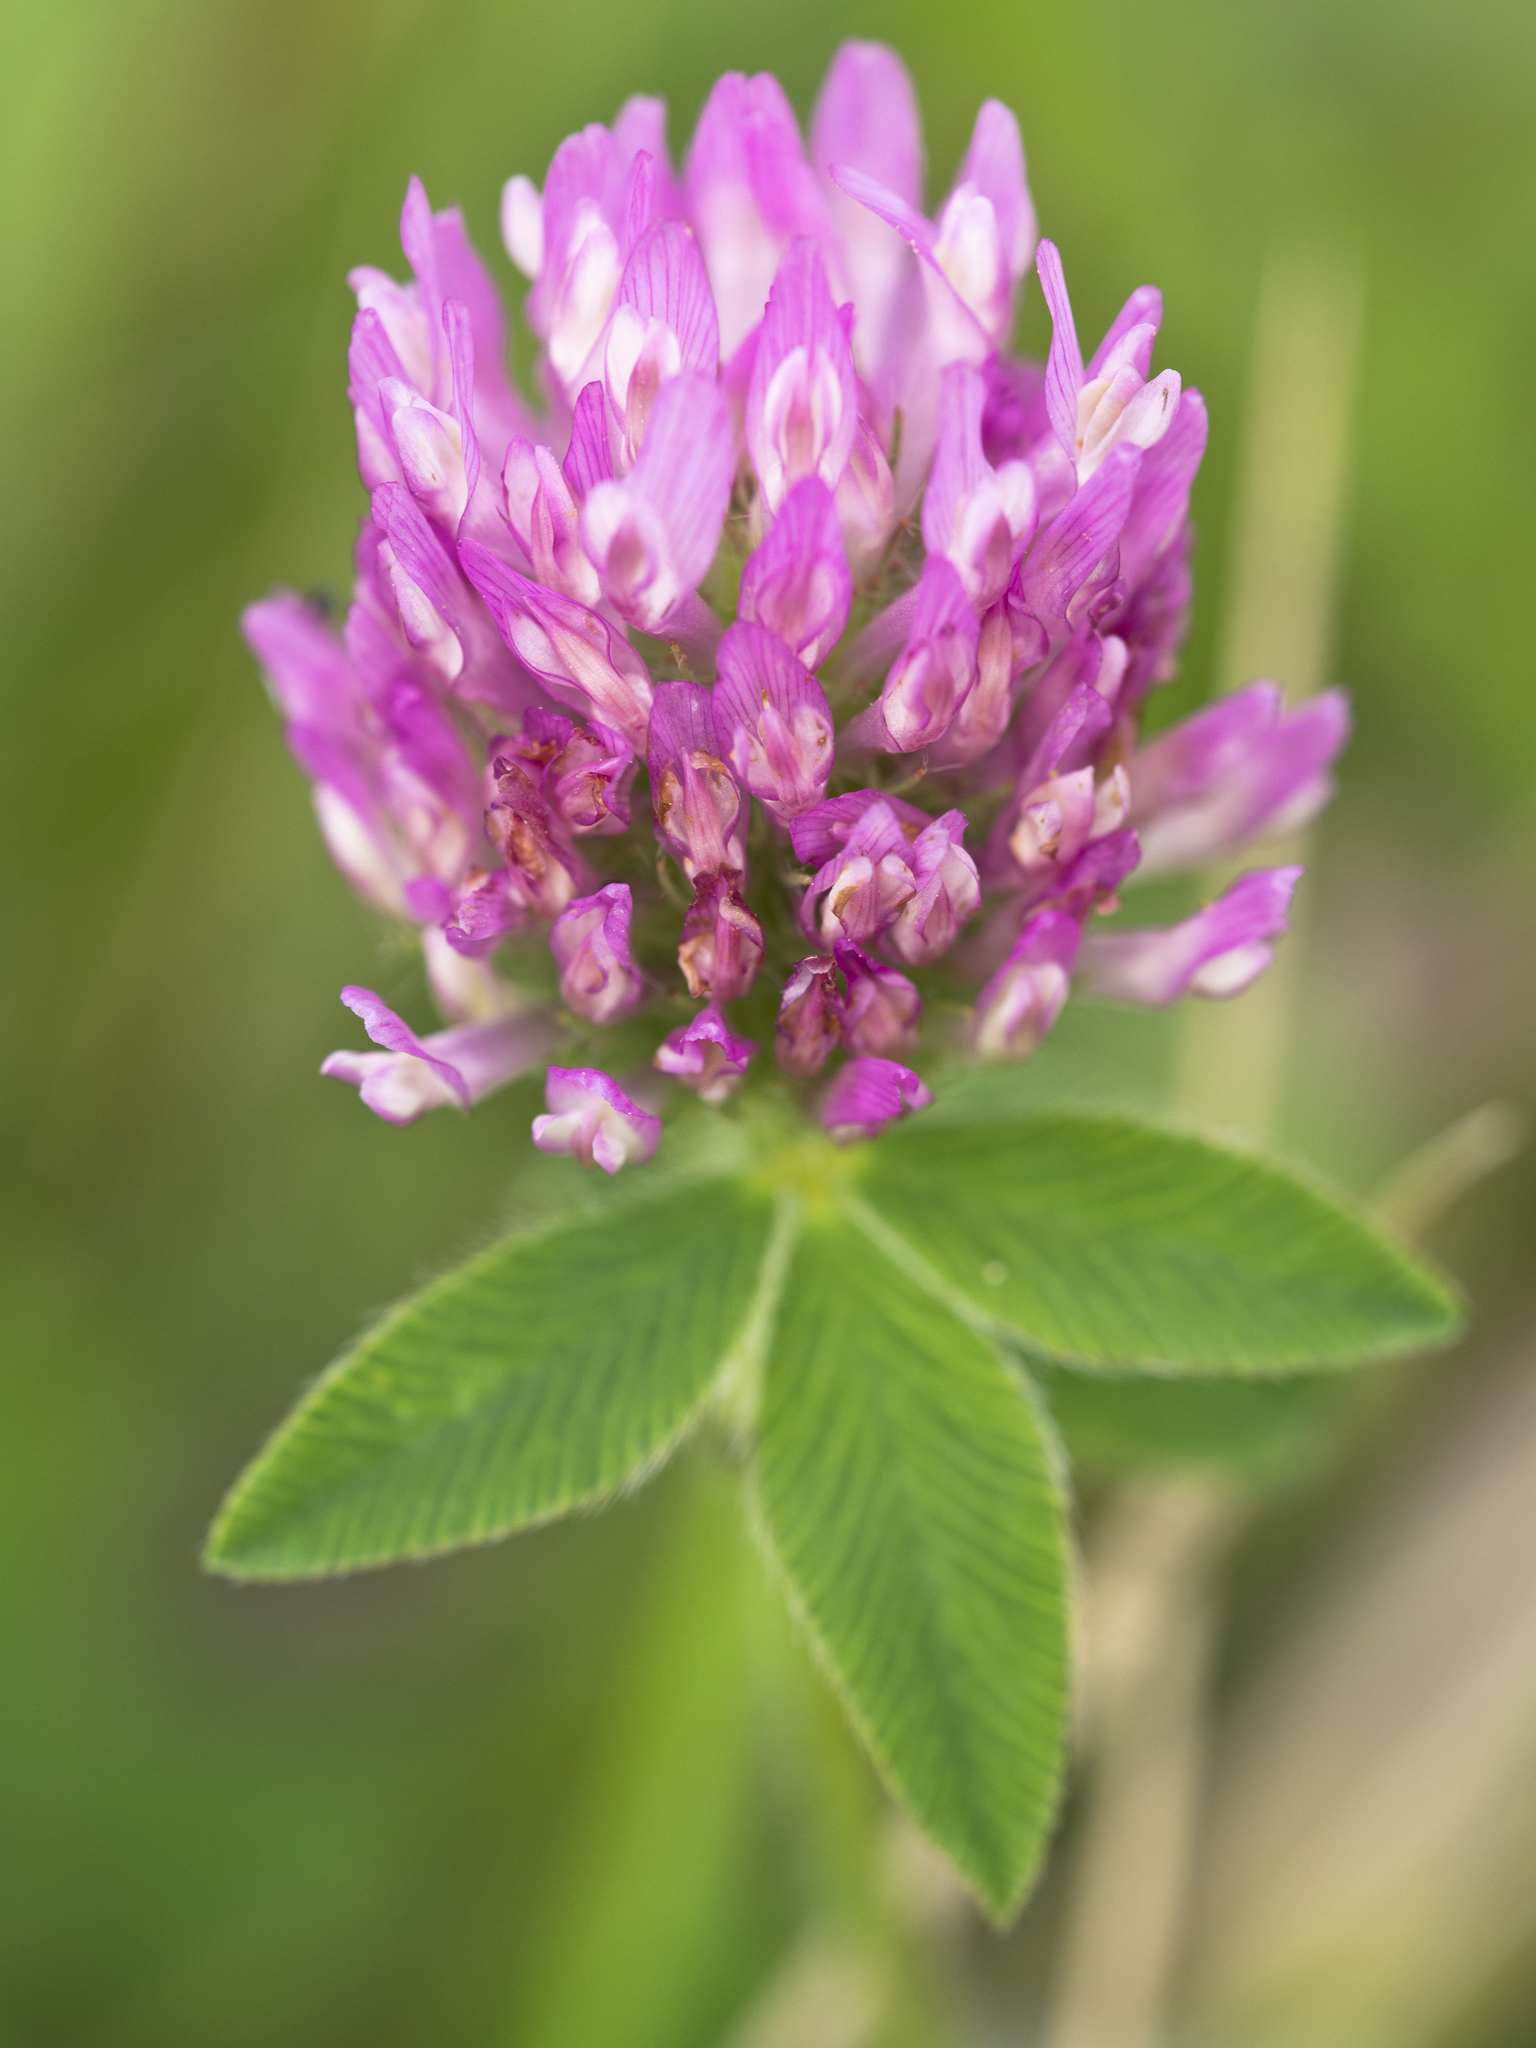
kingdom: Plantae
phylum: Tracheophyta
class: Magnoliopsida
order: Fabales
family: Fabaceae
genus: Trifolium
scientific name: Trifolium pratense
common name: Red clover
